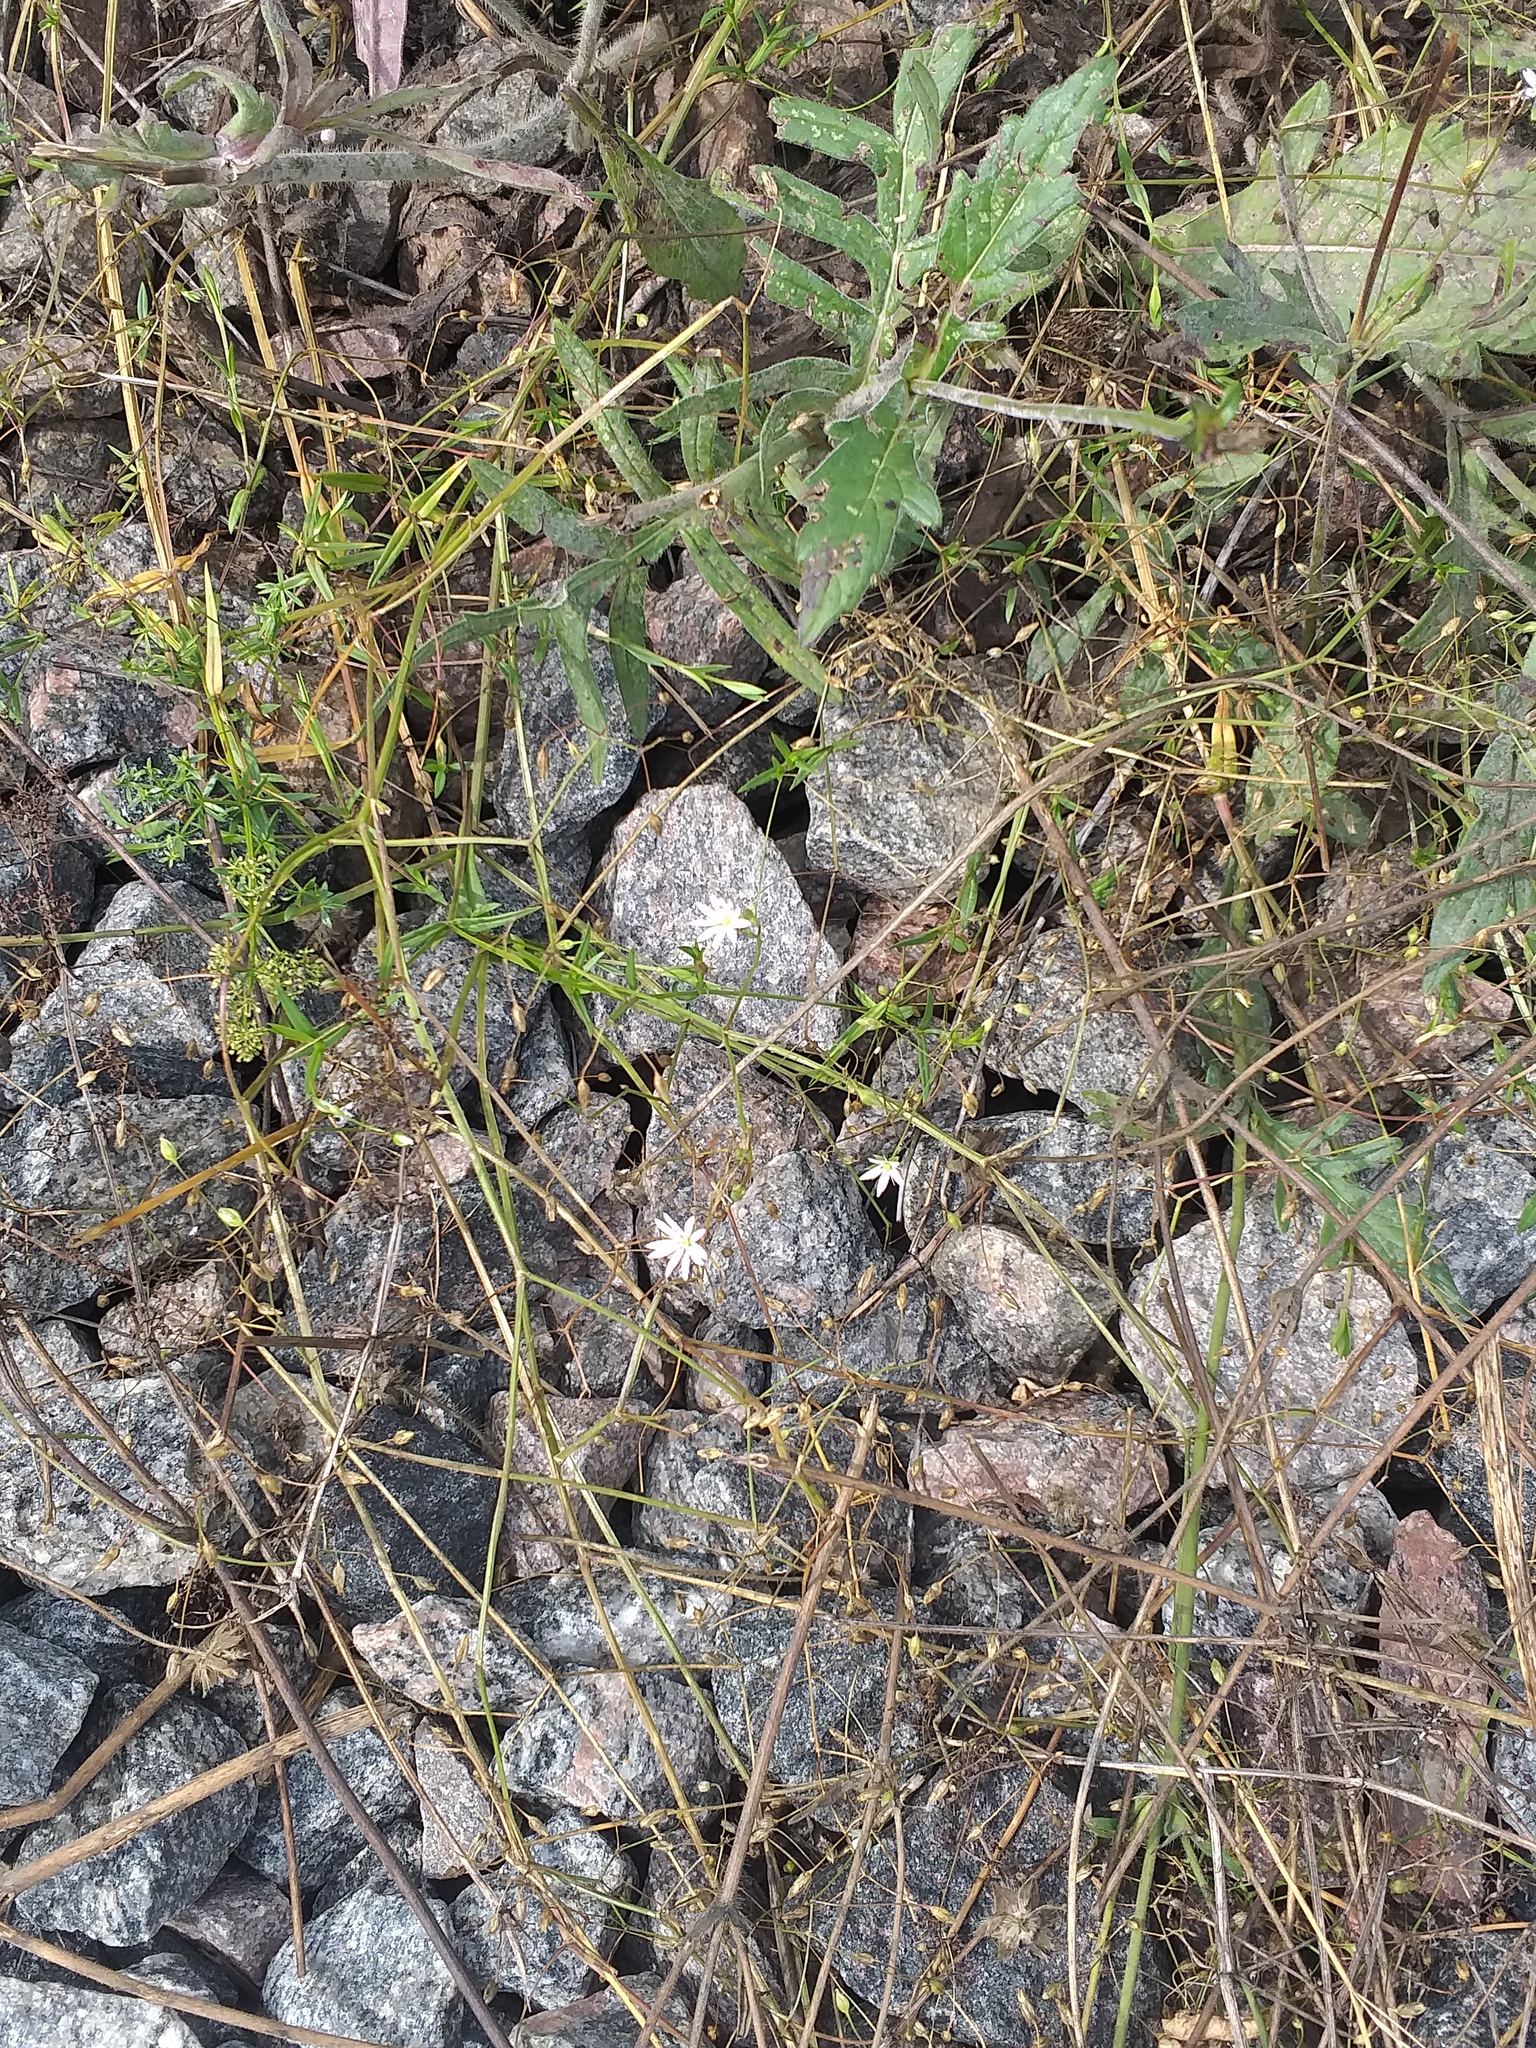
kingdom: Plantae
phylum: Tracheophyta
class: Magnoliopsida
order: Caryophyllales
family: Caryophyllaceae
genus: Stellaria
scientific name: Stellaria graminea
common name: Grass-like starwort
